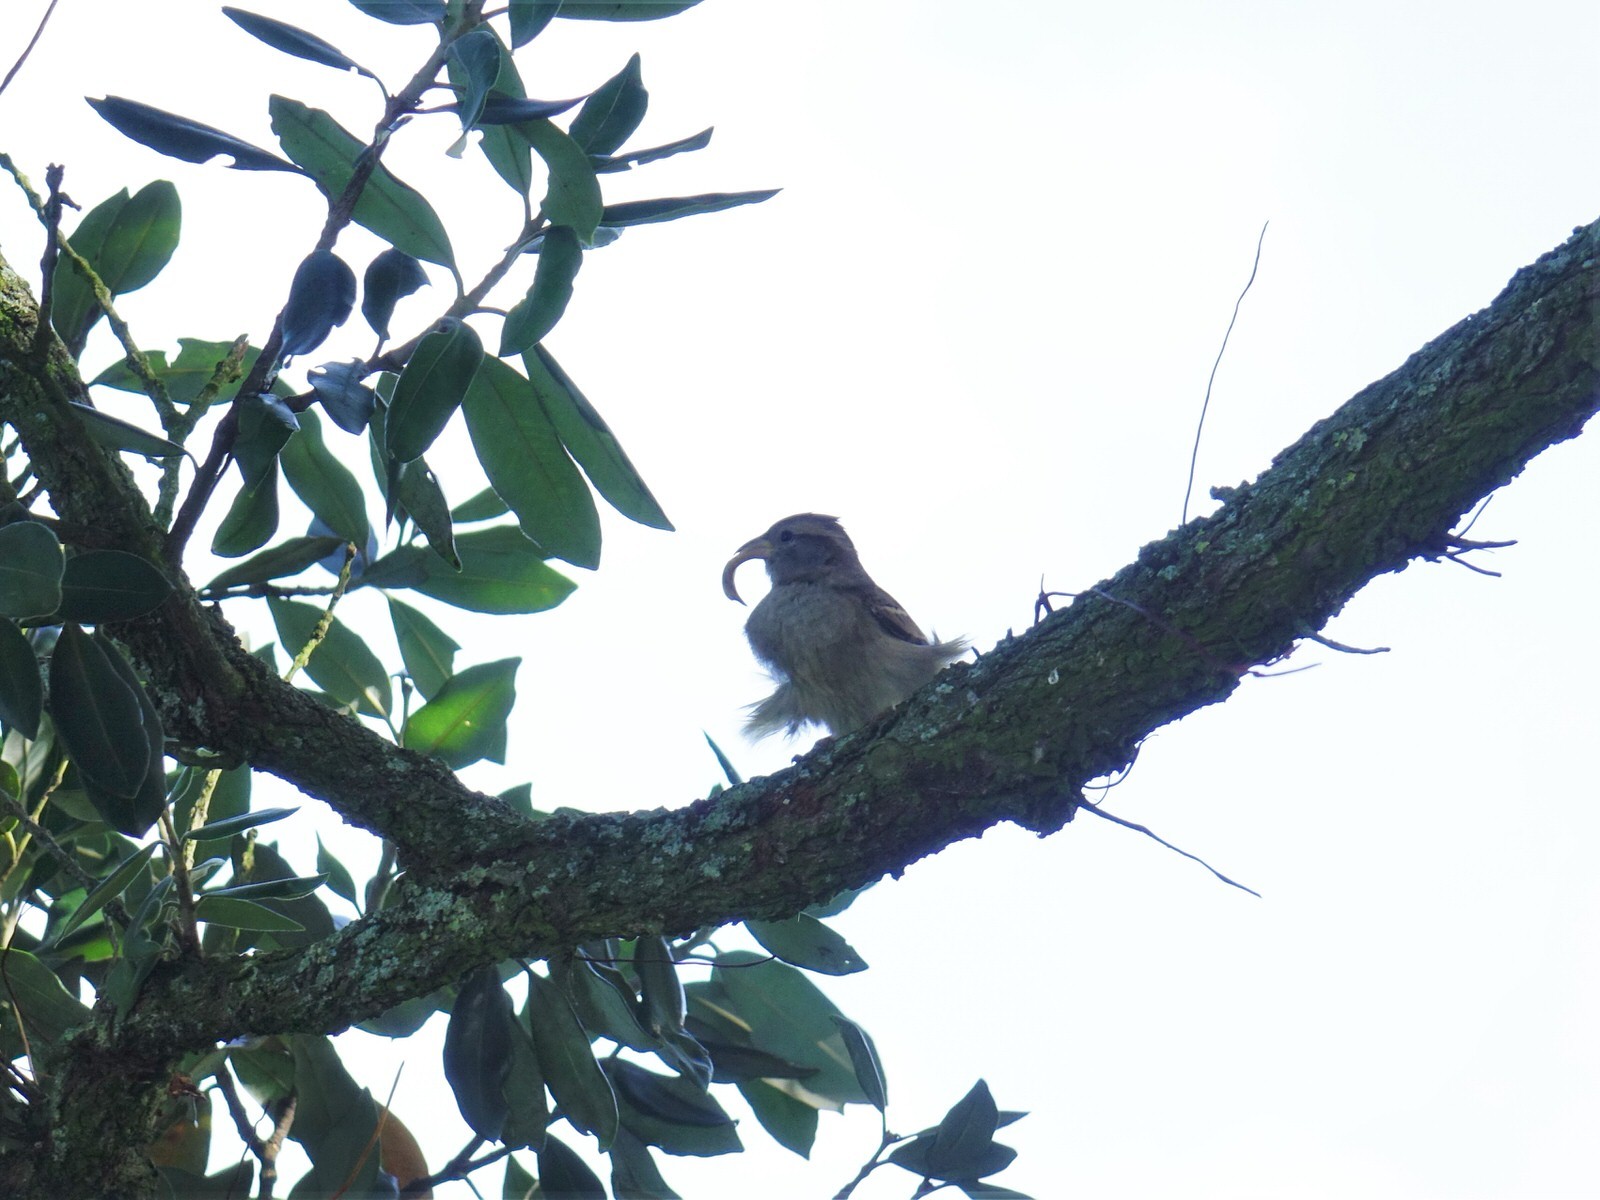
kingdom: Animalia
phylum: Chordata
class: Aves
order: Passeriformes
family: Passeridae
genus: Passer
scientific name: Passer domesticus
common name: House sparrow
